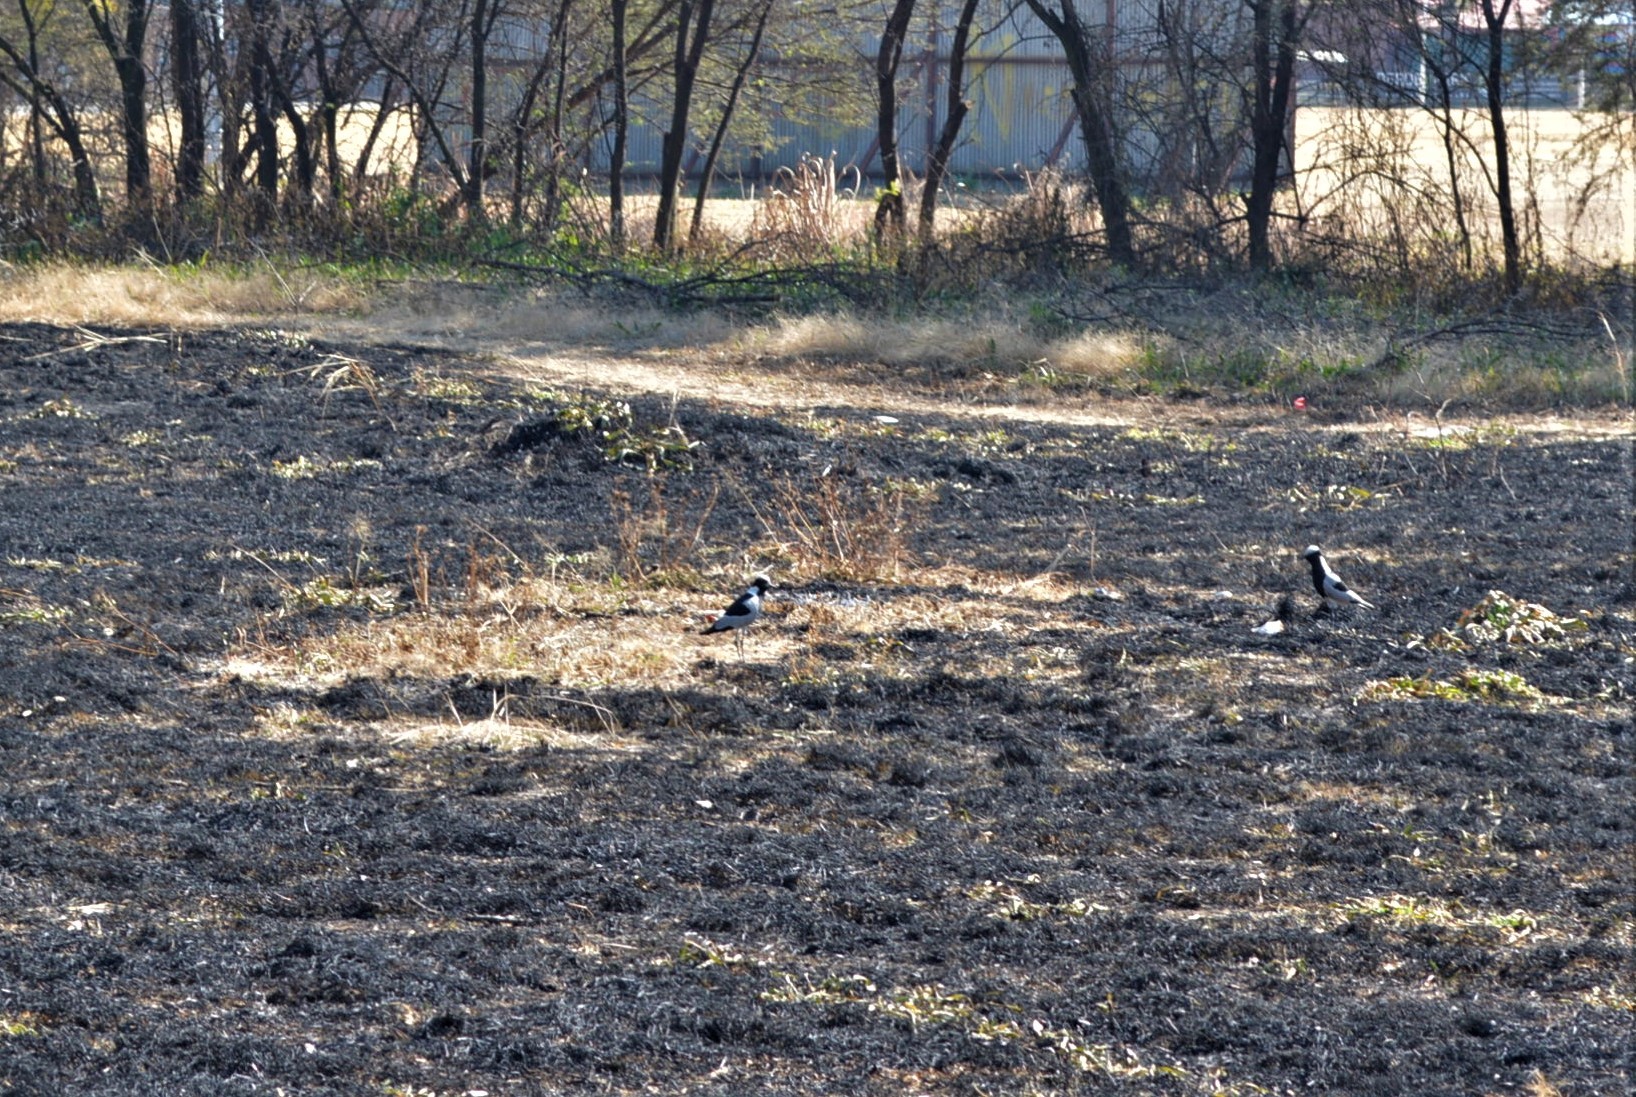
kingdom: Animalia
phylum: Chordata
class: Aves
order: Charadriiformes
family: Charadriidae
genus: Vanellus
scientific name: Vanellus armatus
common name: Blacksmith lapwing
